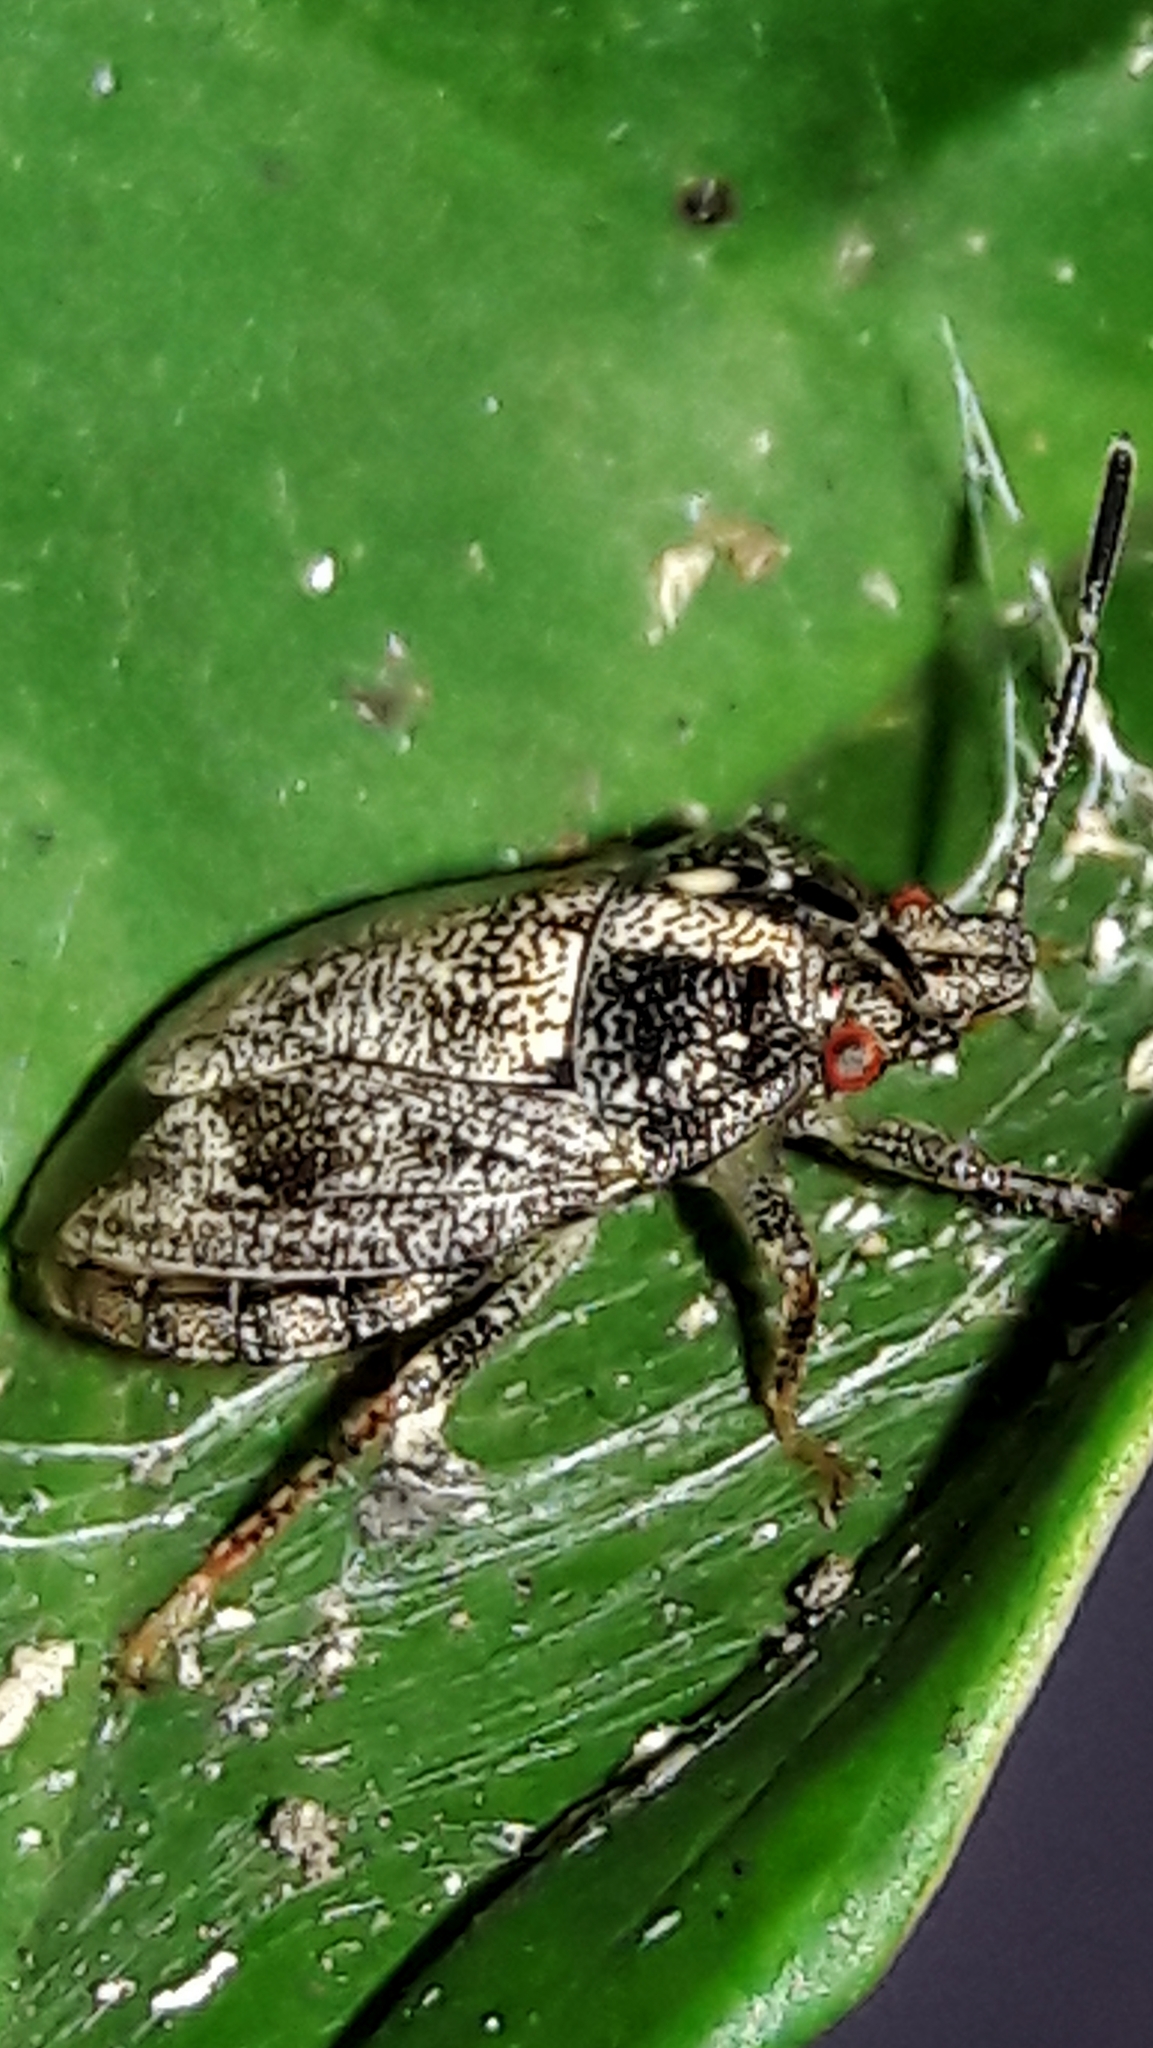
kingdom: Animalia
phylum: Arthropoda
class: Insecta
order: Hemiptera
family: Pentatomidae
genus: Antiteuchus
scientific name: Antiteuchus tripterus
